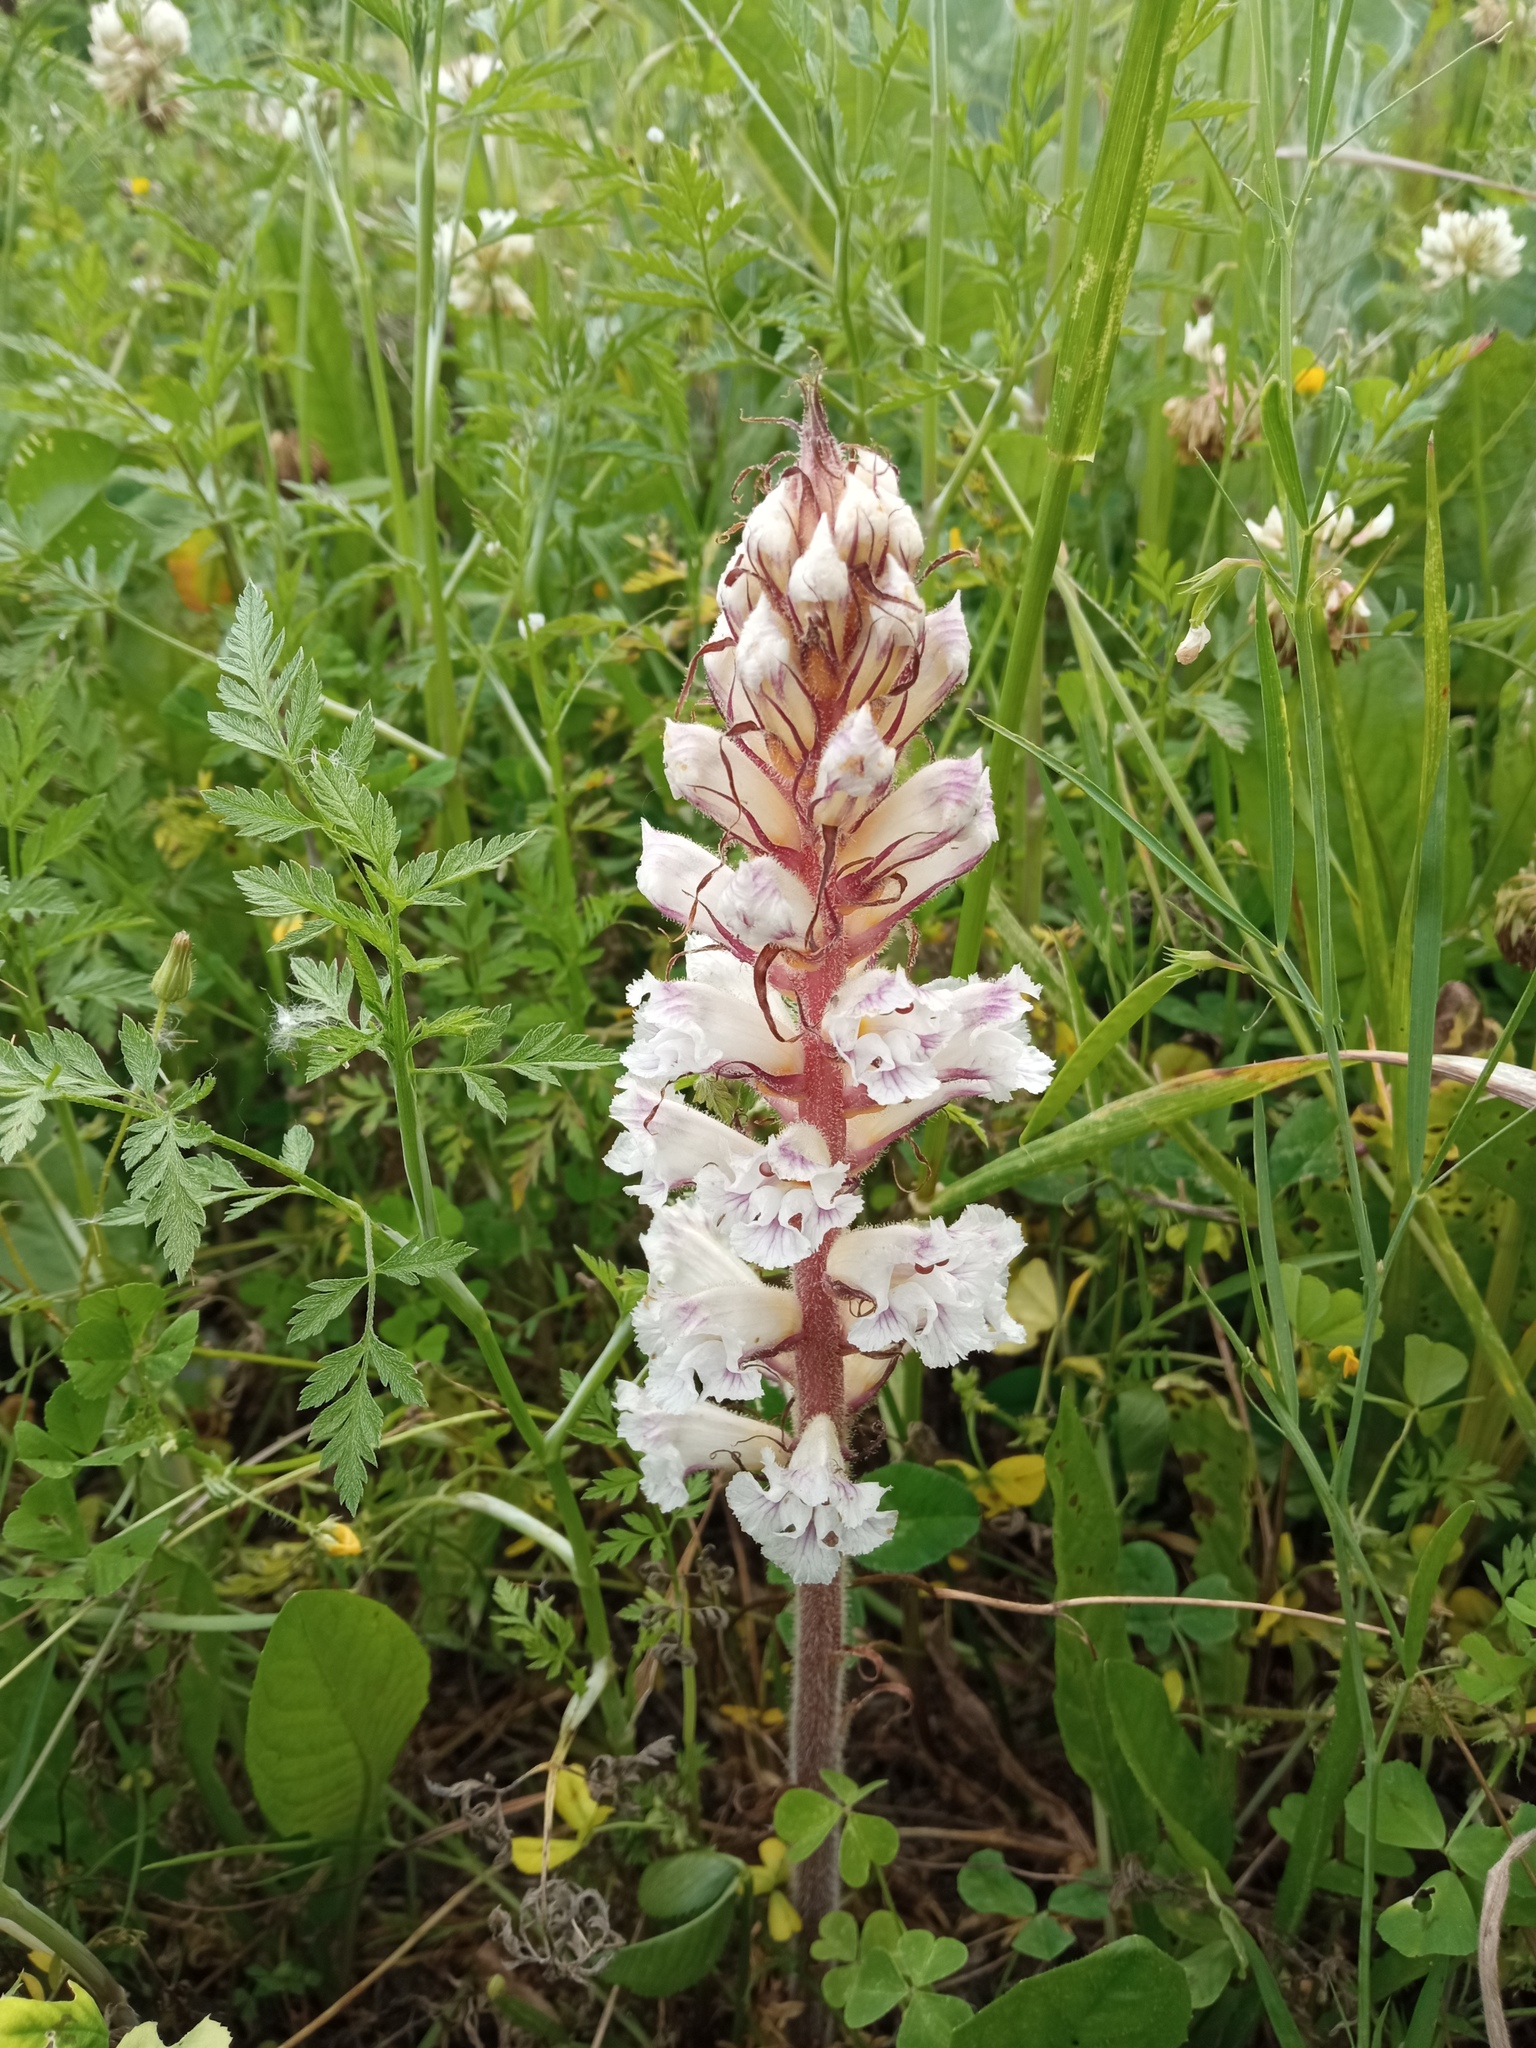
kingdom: Plantae
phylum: Tracheophyta
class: Magnoliopsida
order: Lamiales
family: Orobanchaceae
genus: Orobanche
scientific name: Orobanche crenata
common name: Bean broomrape
